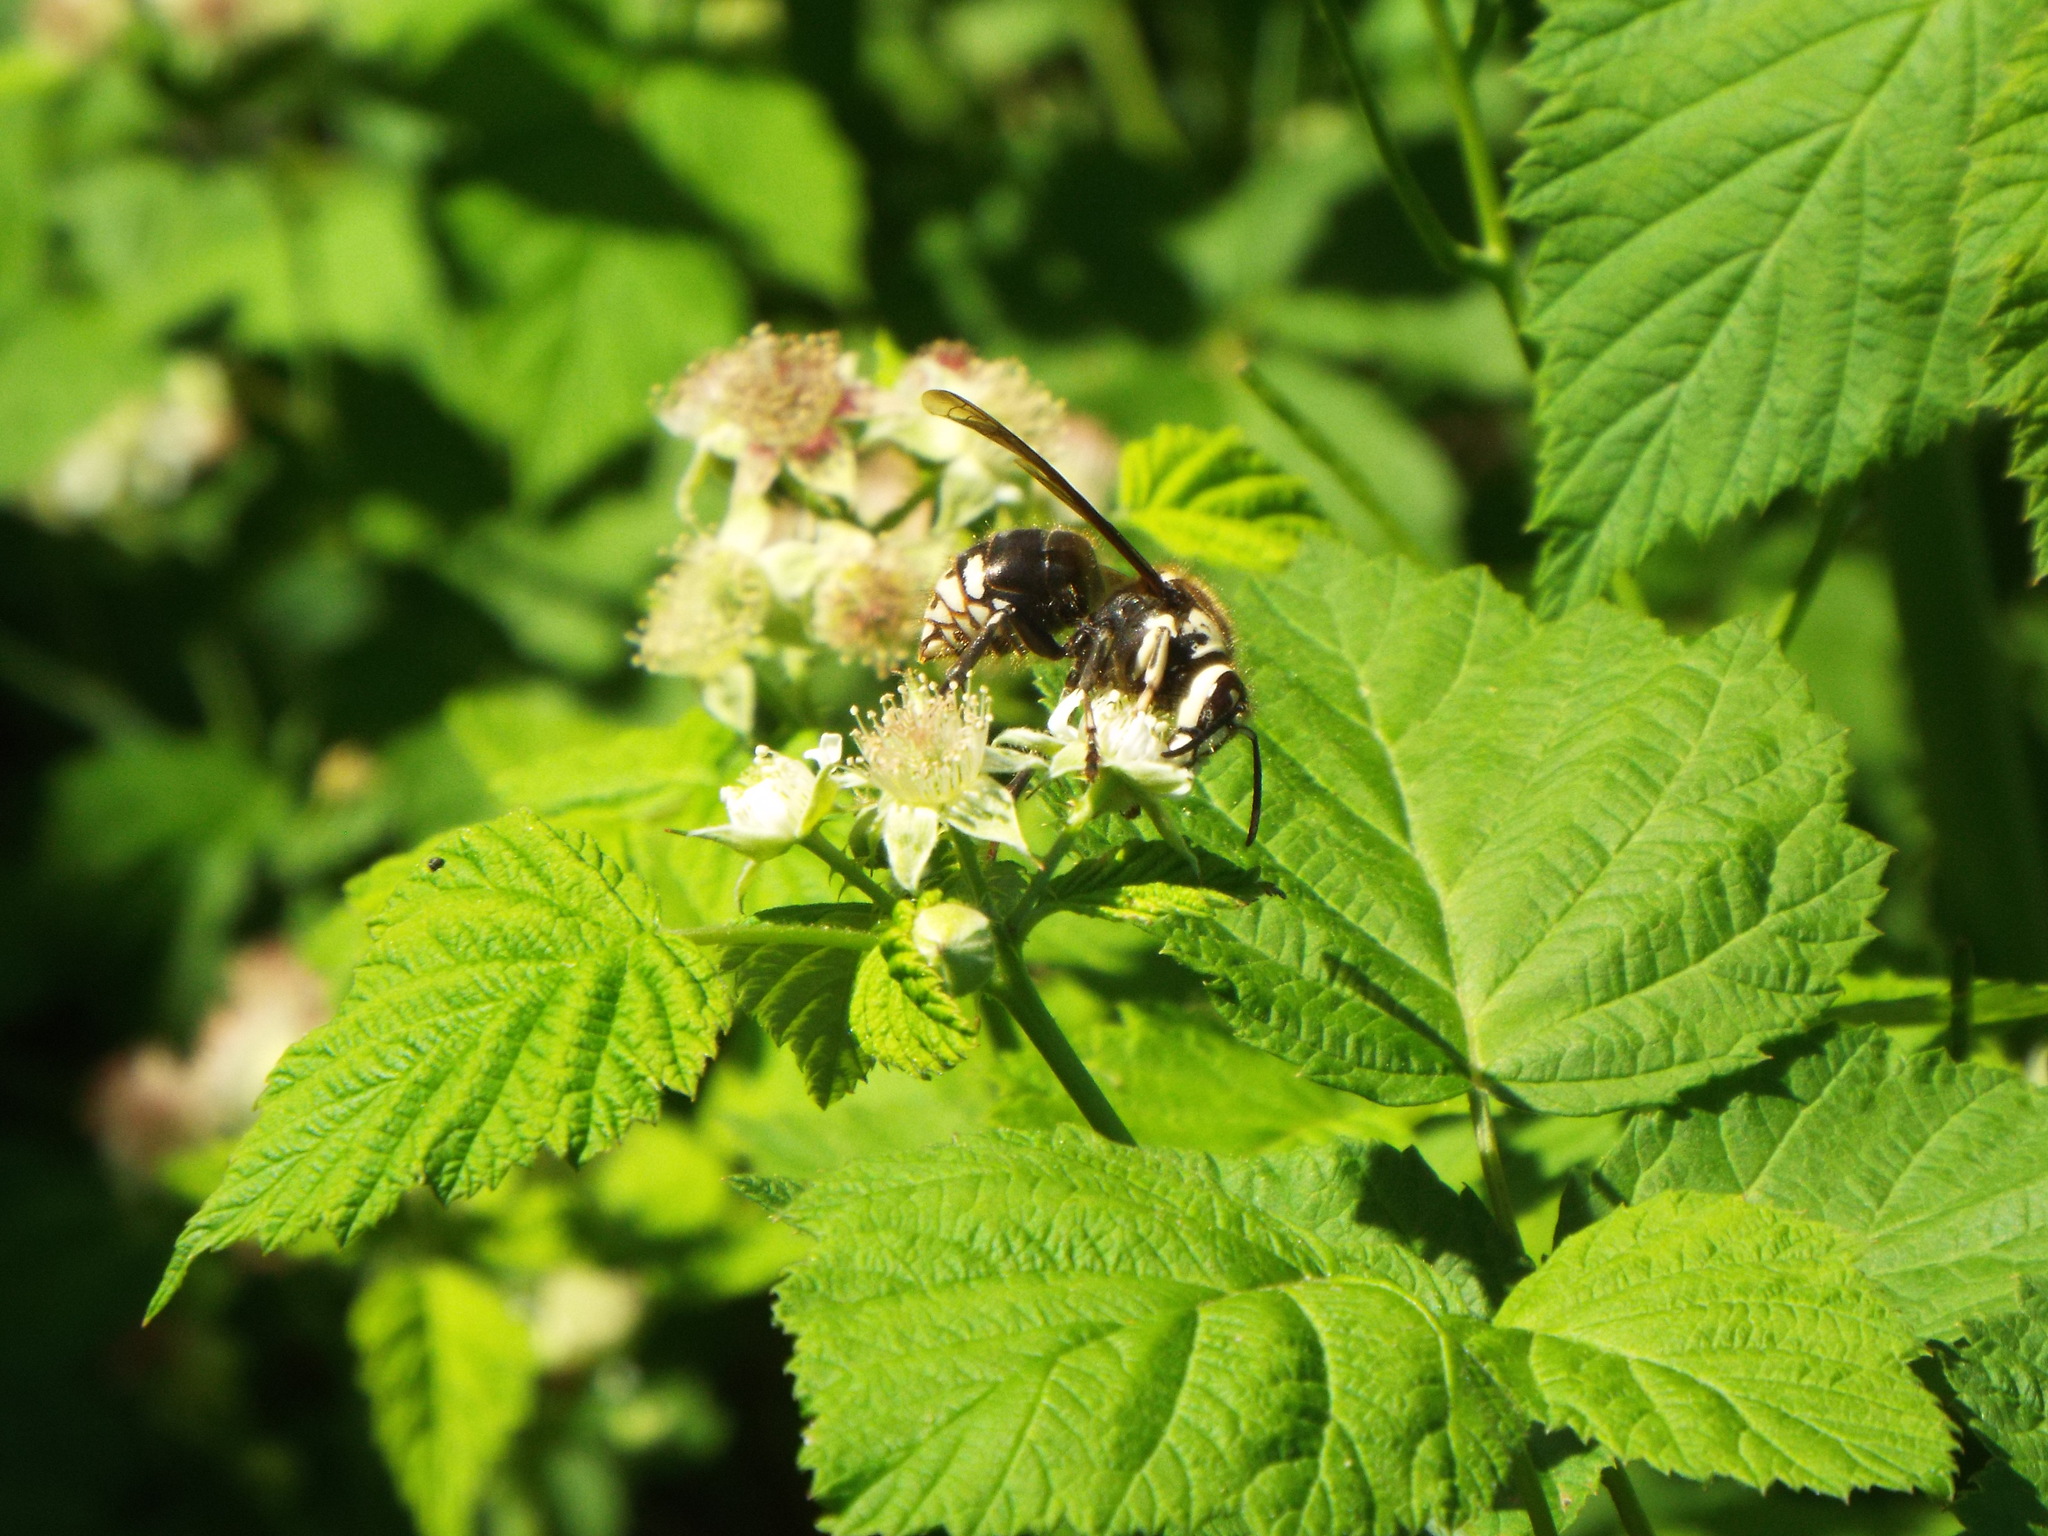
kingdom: Animalia
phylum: Arthropoda
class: Insecta
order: Hymenoptera
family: Vespidae
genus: Dolichovespula
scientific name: Dolichovespula maculata
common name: Bald-faced hornet
